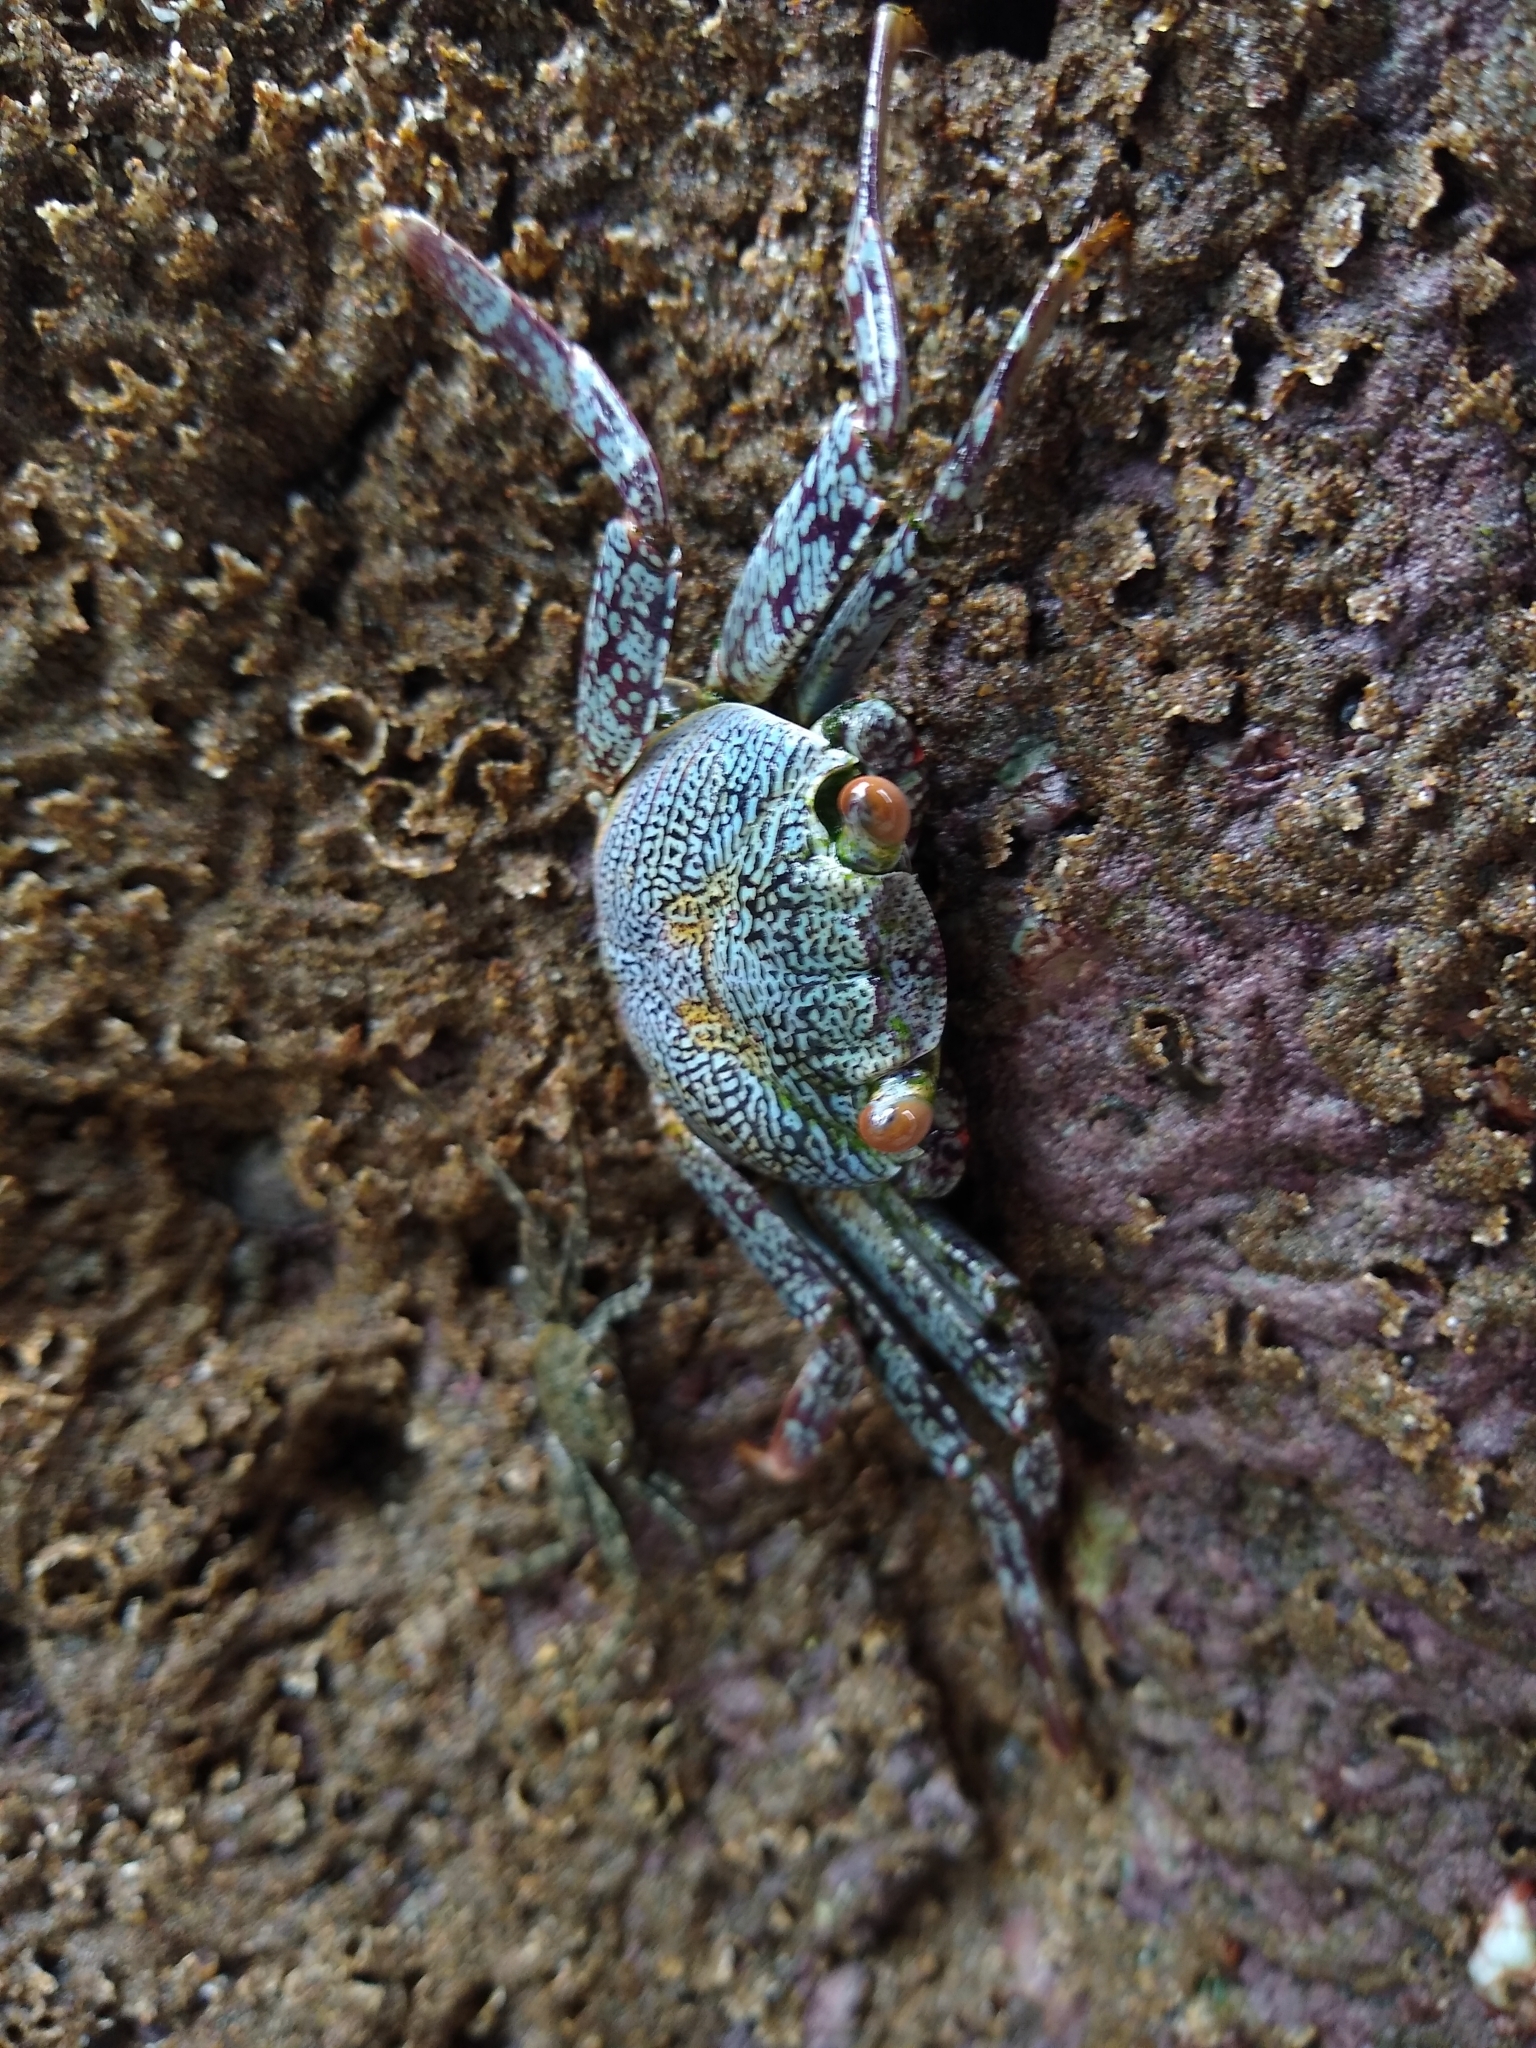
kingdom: Animalia
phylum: Arthropoda
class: Malacostraca
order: Decapoda
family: Grapsidae
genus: Grapsus
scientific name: Grapsus grapsus
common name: Sally lightfoot
